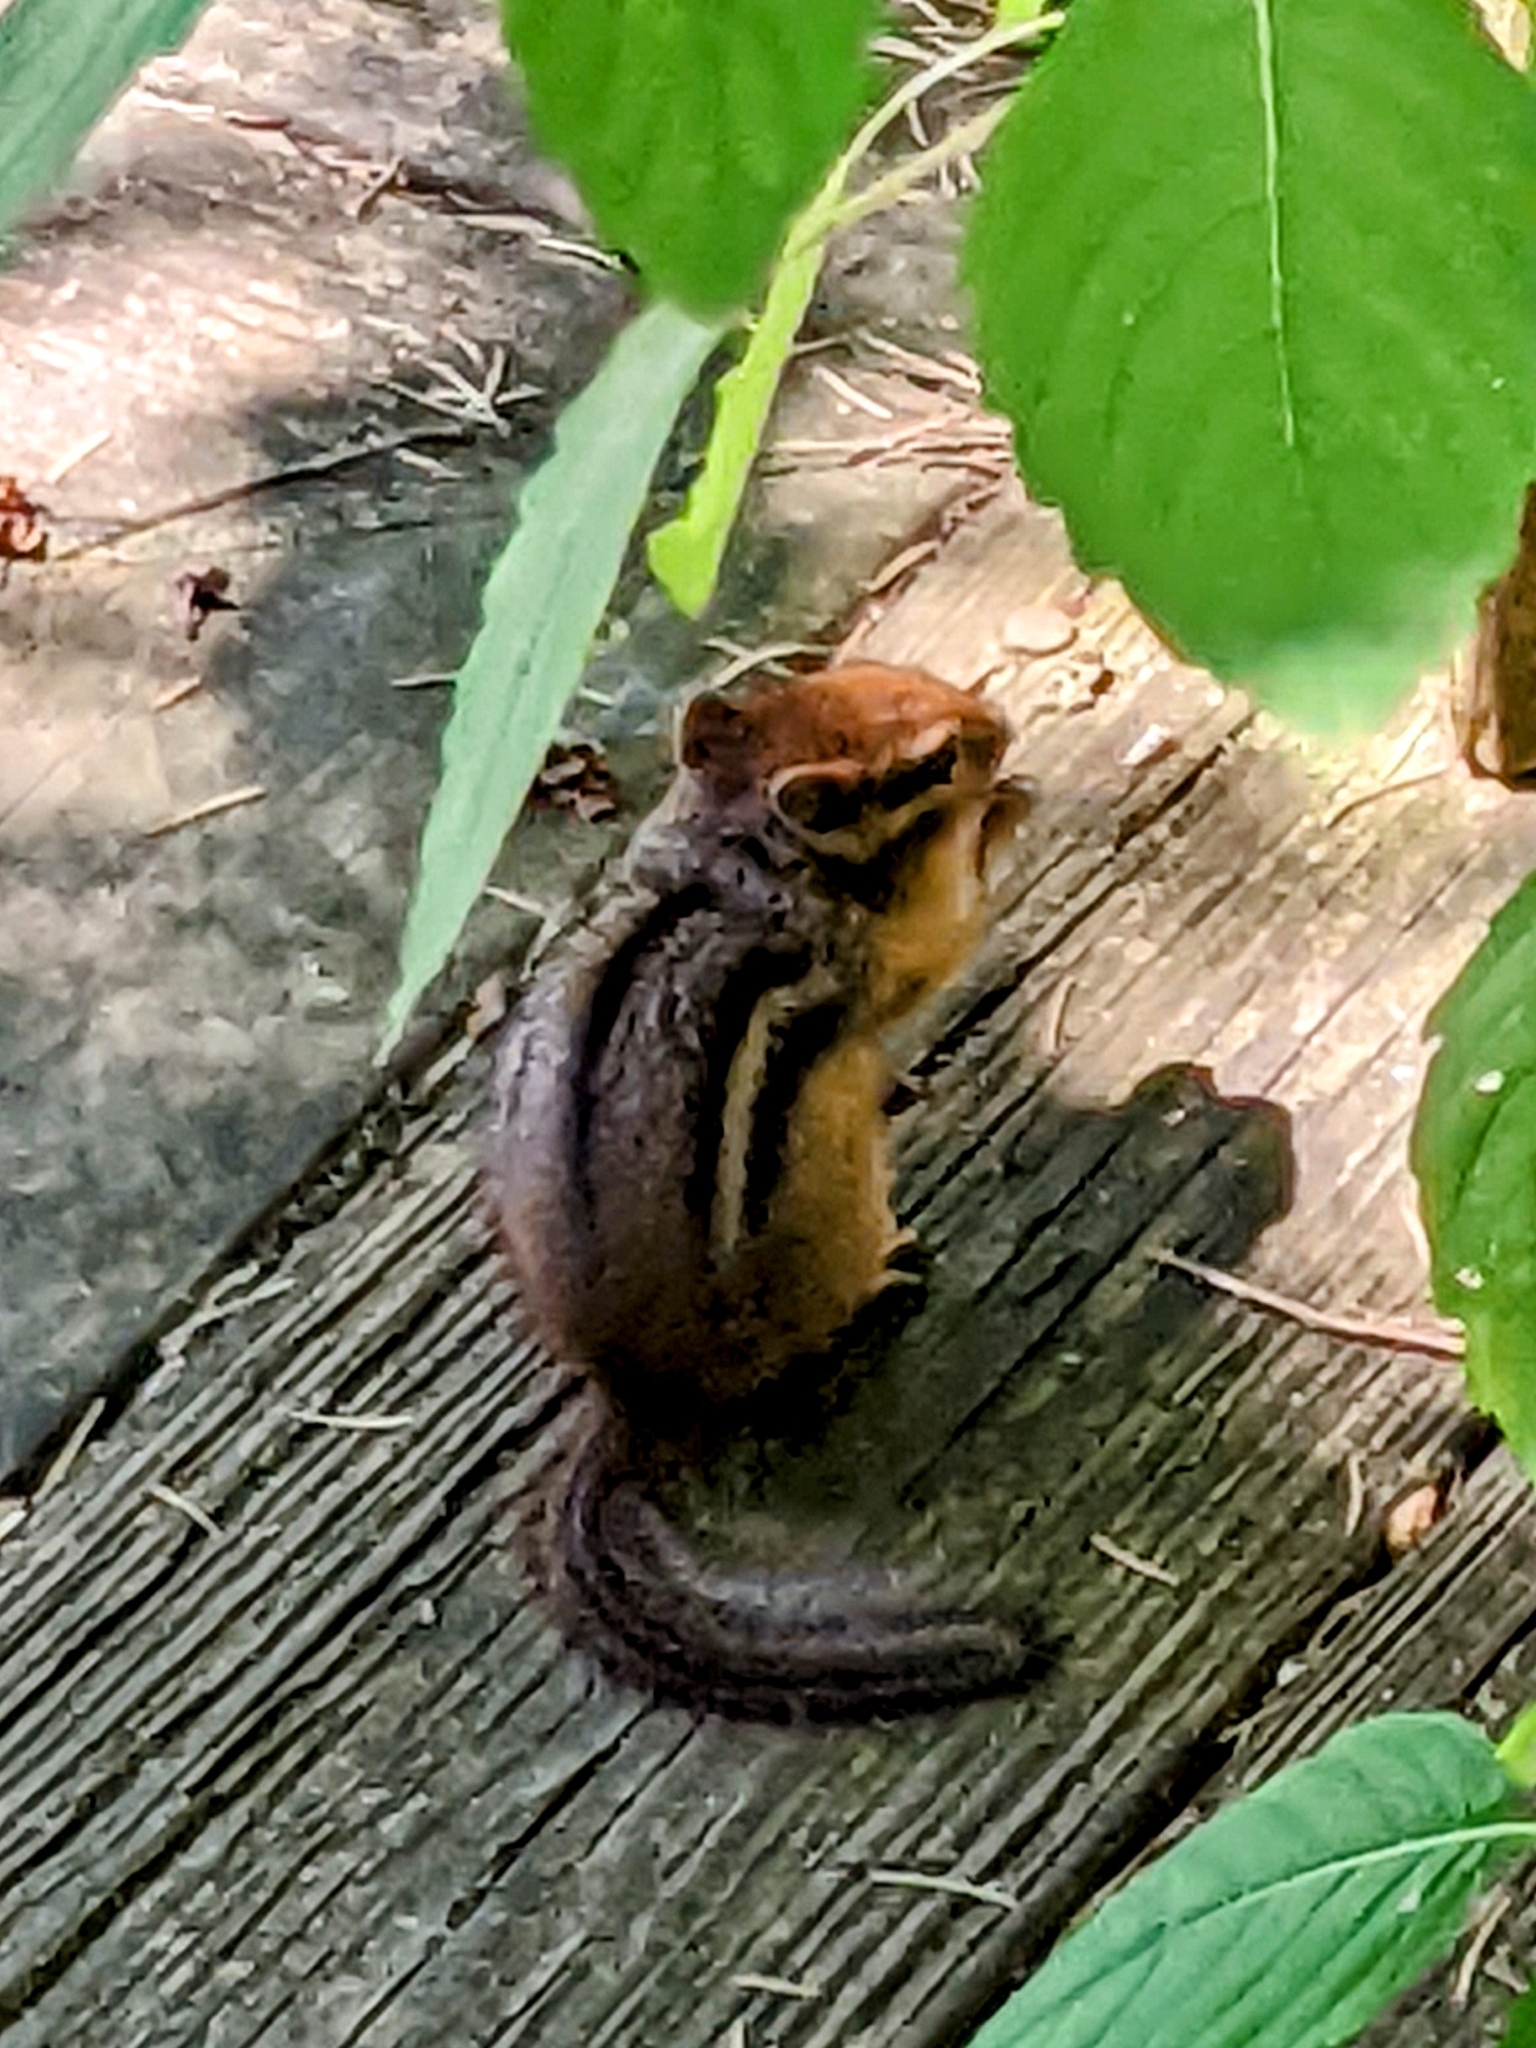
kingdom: Animalia
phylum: Chordata
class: Mammalia
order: Rodentia
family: Sciuridae
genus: Tamias
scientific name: Tamias striatus
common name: Eastern chipmunk
